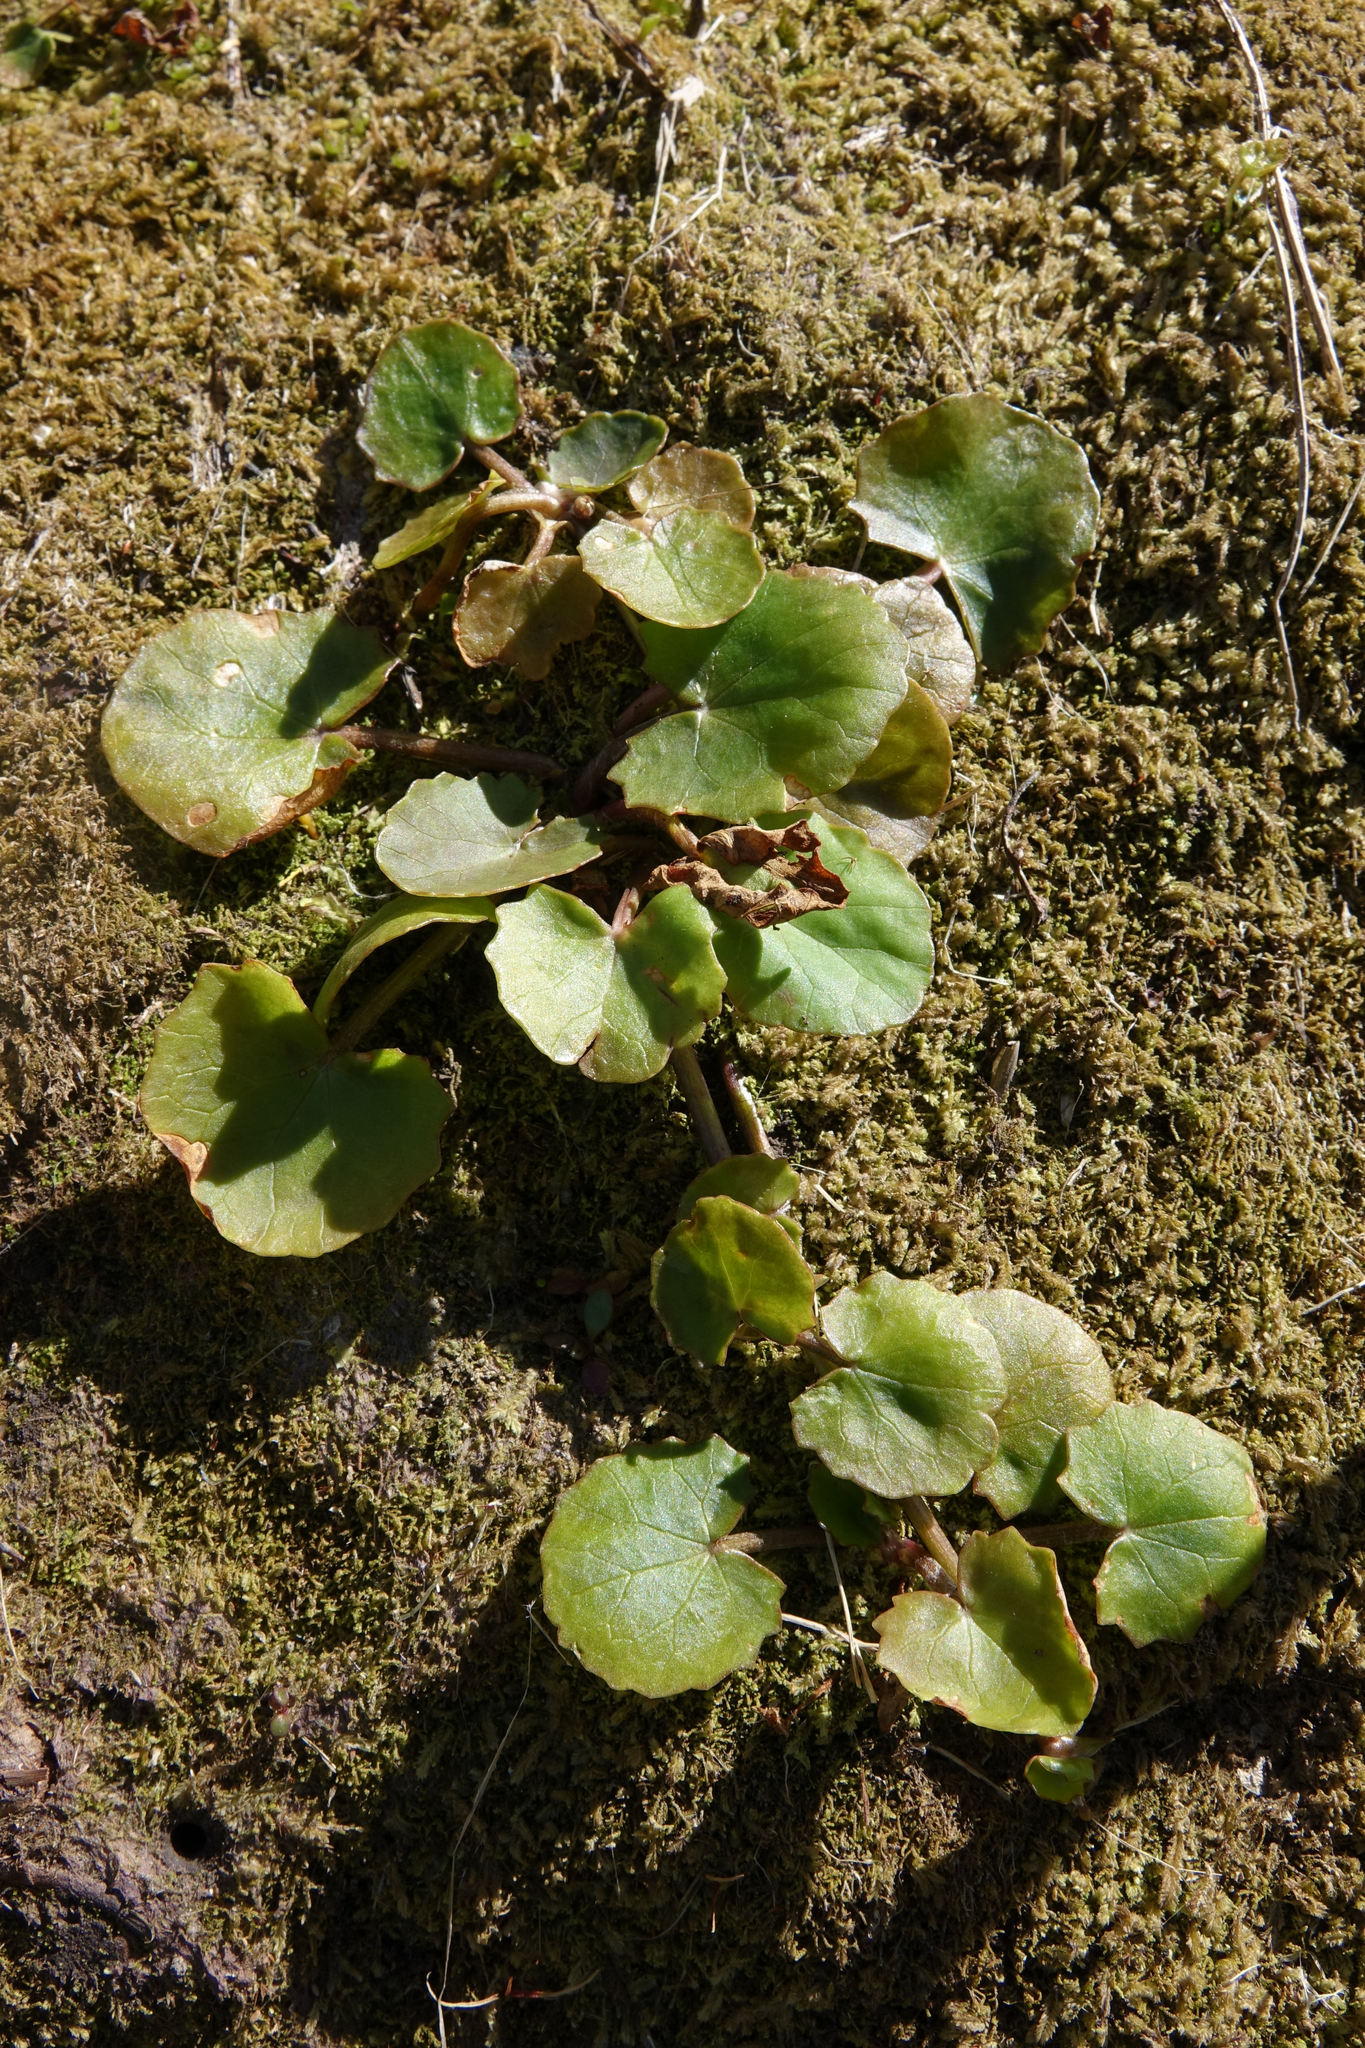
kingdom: Plantae
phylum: Tracheophyta
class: Magnoliopsida
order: Apiales
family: Apiaceae
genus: Centella
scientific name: Centella uniflora
